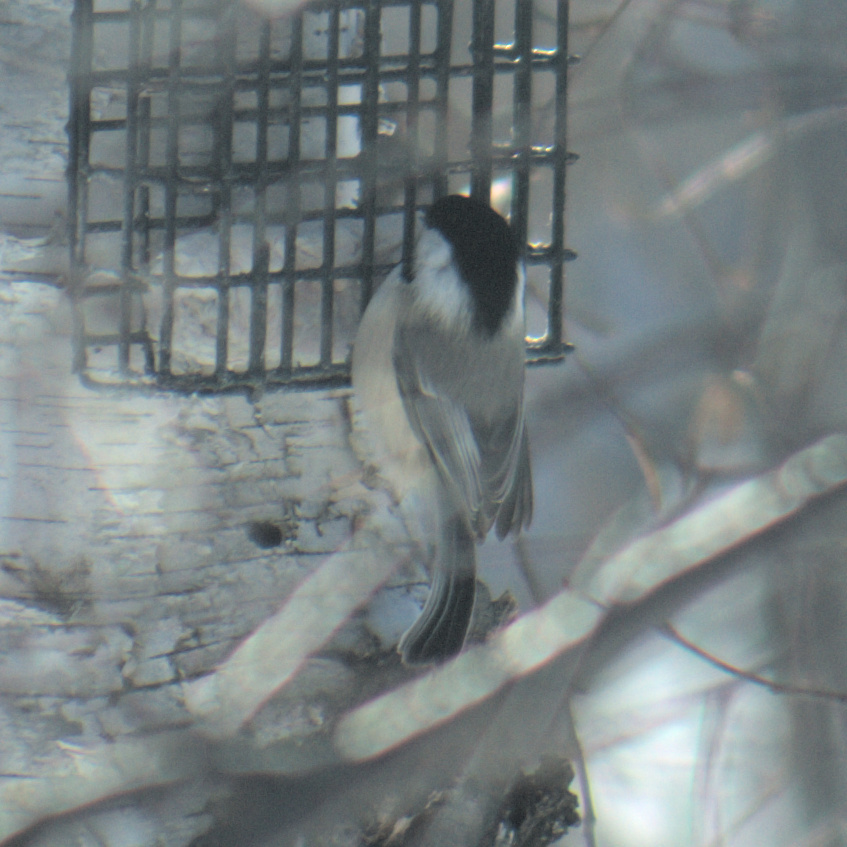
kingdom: Animalia
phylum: Chordata
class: Aves
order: Passeriformes
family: Paridae
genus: Poecile
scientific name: Poecile atricapillus
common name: Black-capped chickadee
